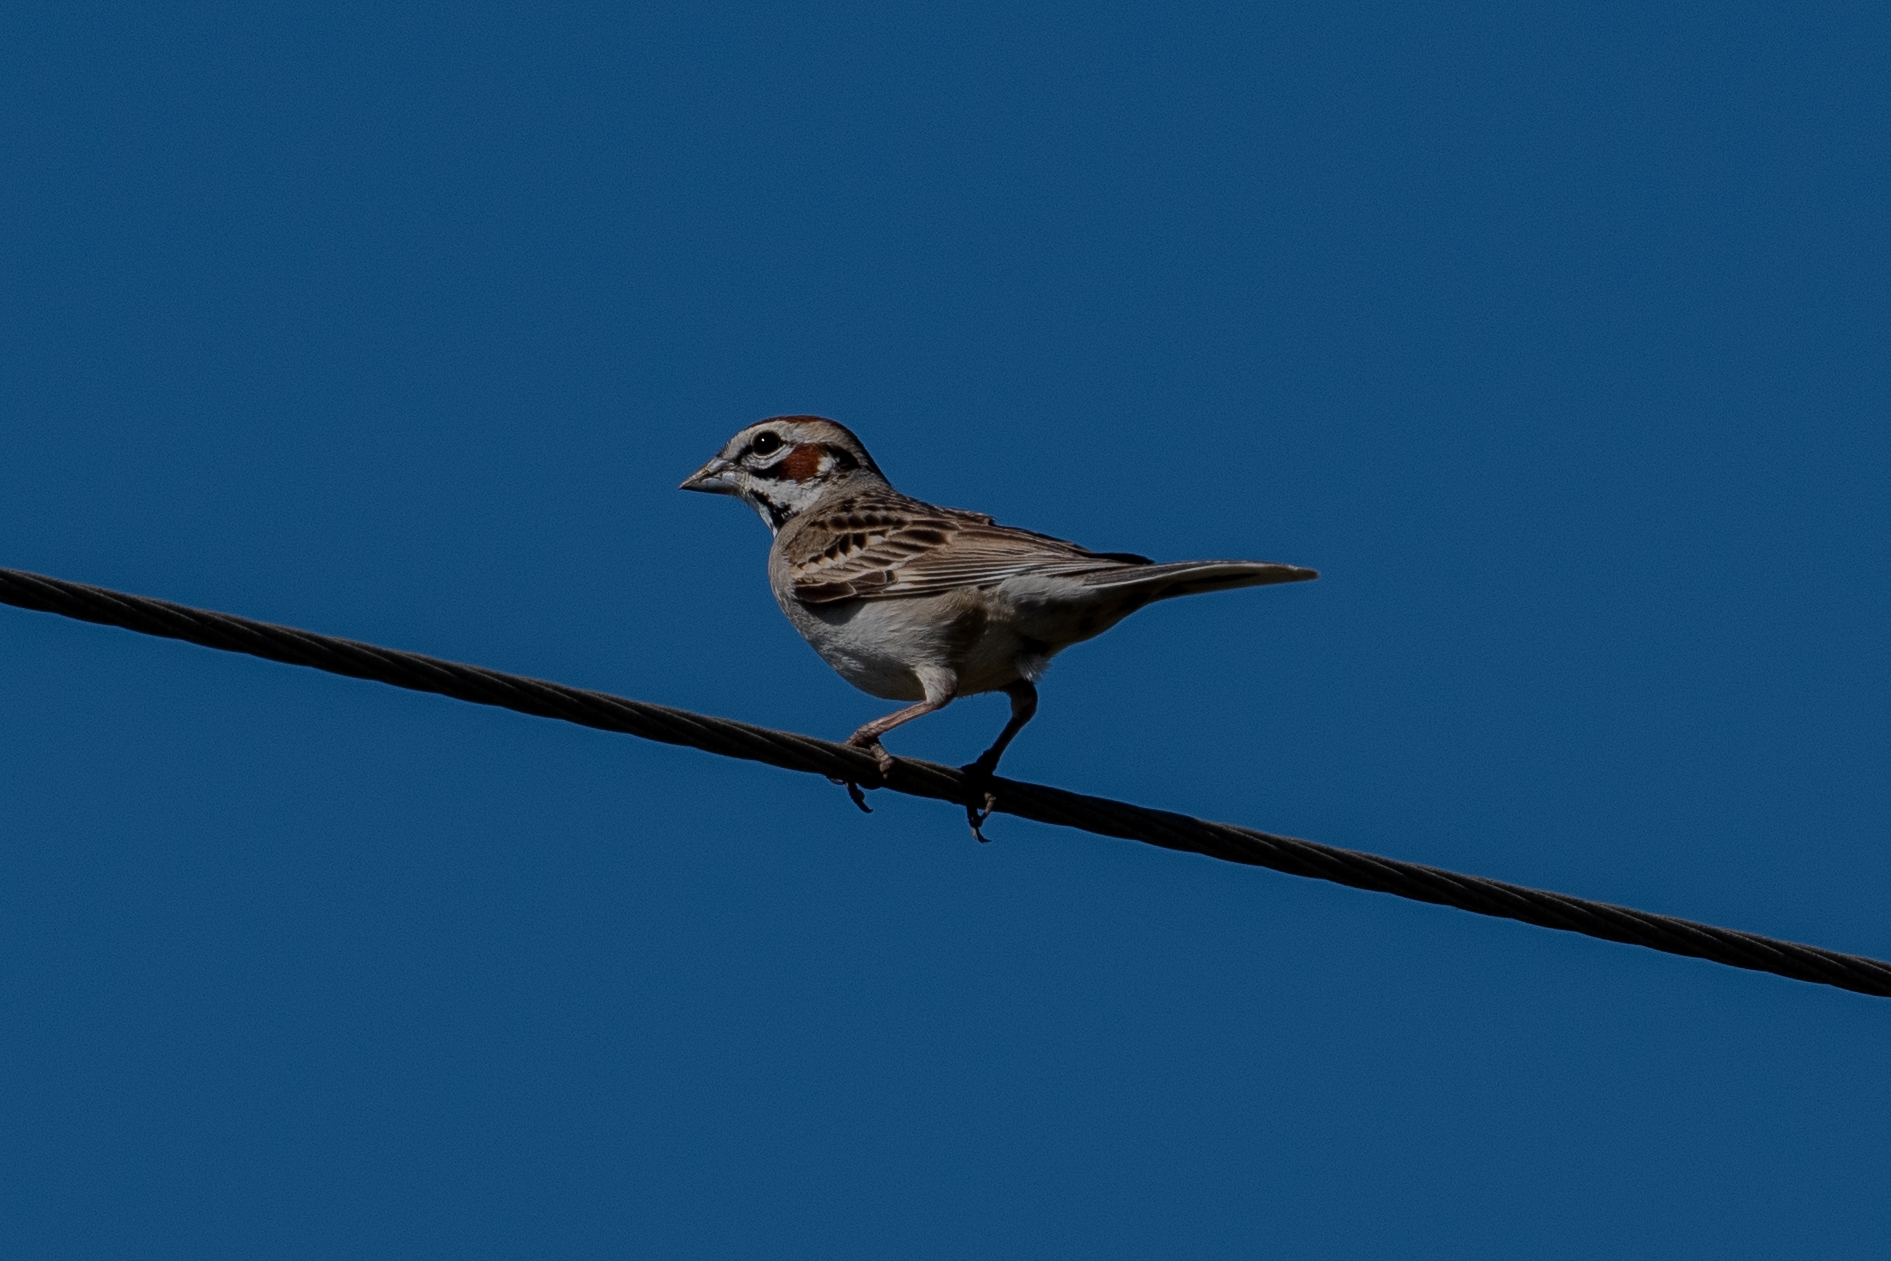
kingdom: Animalia
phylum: Chordata
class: Aves
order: Passeriformes
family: Passerellidae
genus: Chondestes
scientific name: Chondestes grammacus
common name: Lark sparrow
